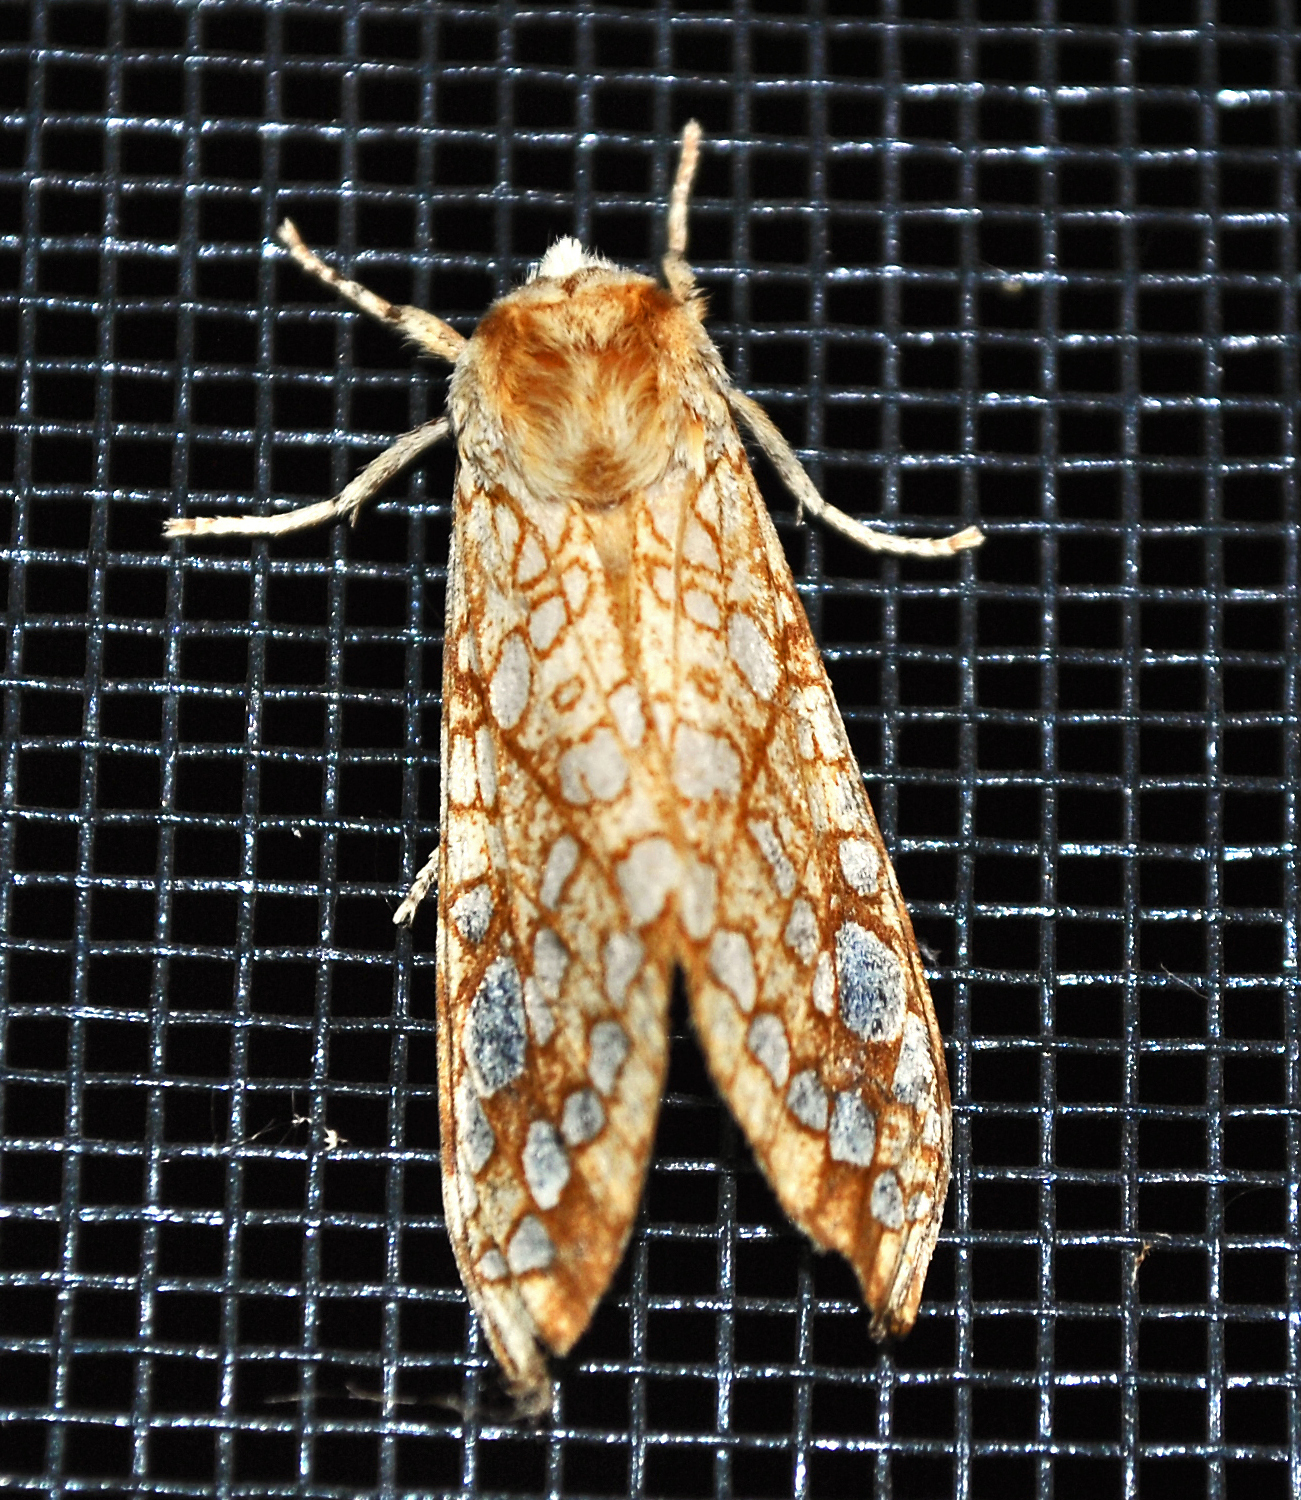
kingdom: Animalia
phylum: Arthropoda
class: Insecta
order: Lepidoptera
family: Erebidae
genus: Lophocampa
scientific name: Lophocampa caryae
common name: Hickory tussock moth
